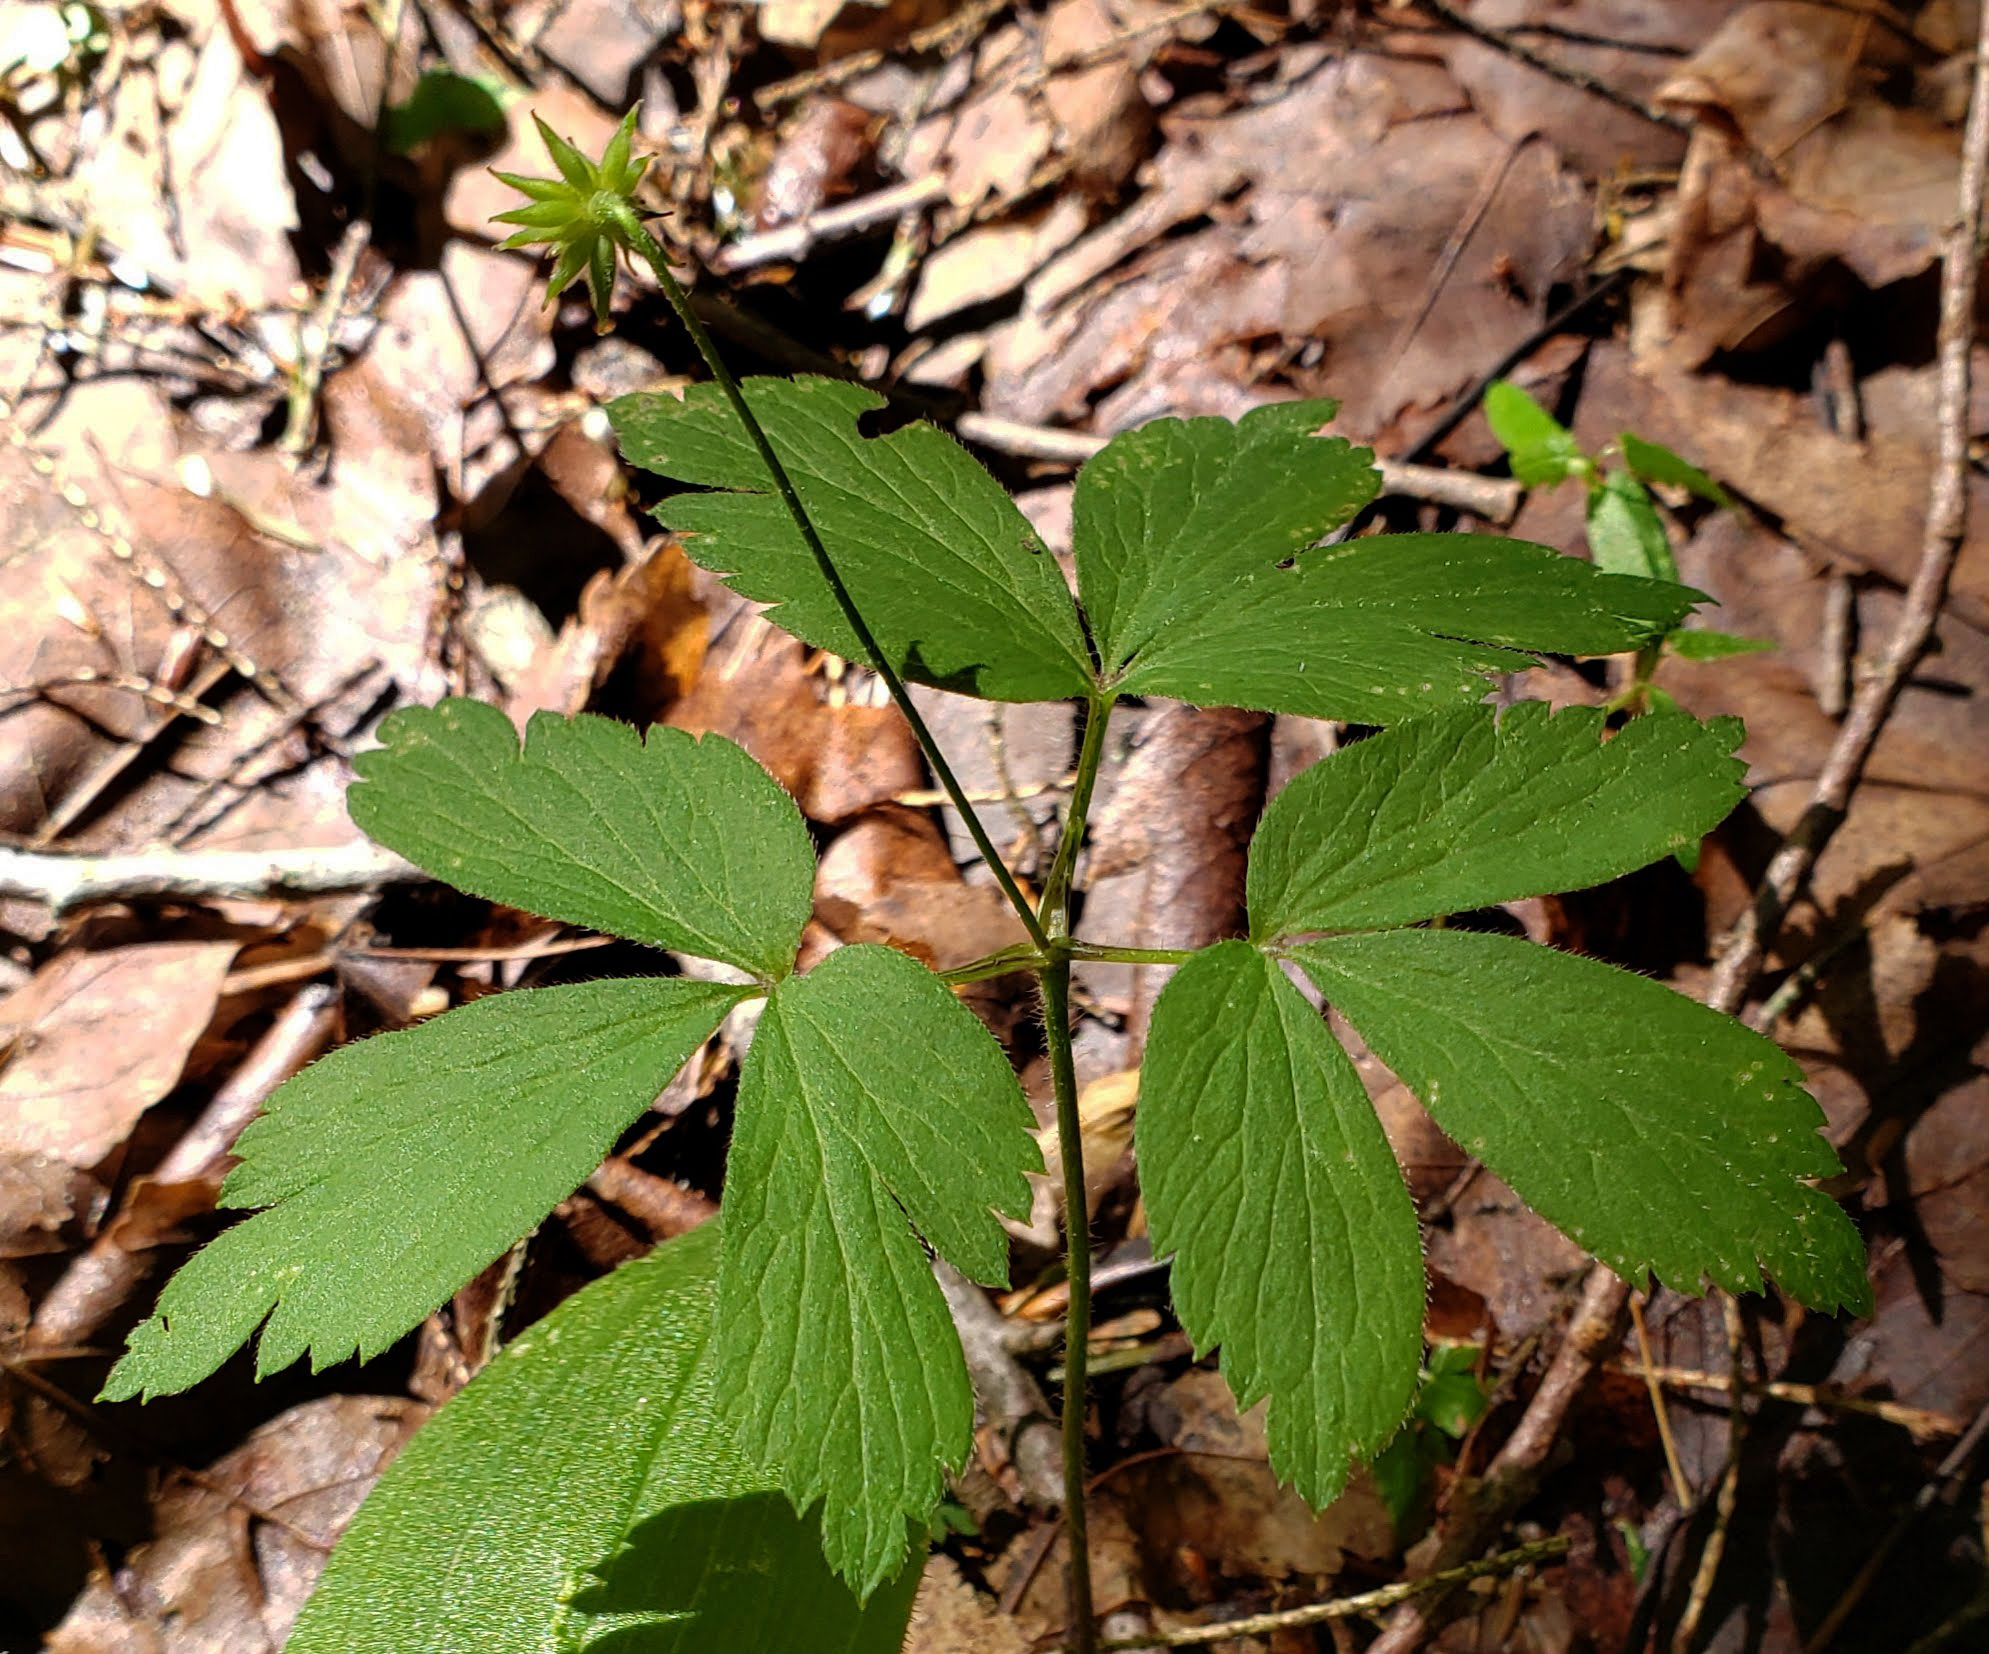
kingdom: Plantae
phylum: Tracheophyta
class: Magnoliopsida
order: Ranunculales
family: Ranunculaceae
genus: Anemone
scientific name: Anemone quinquefolia
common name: Wood anemone
